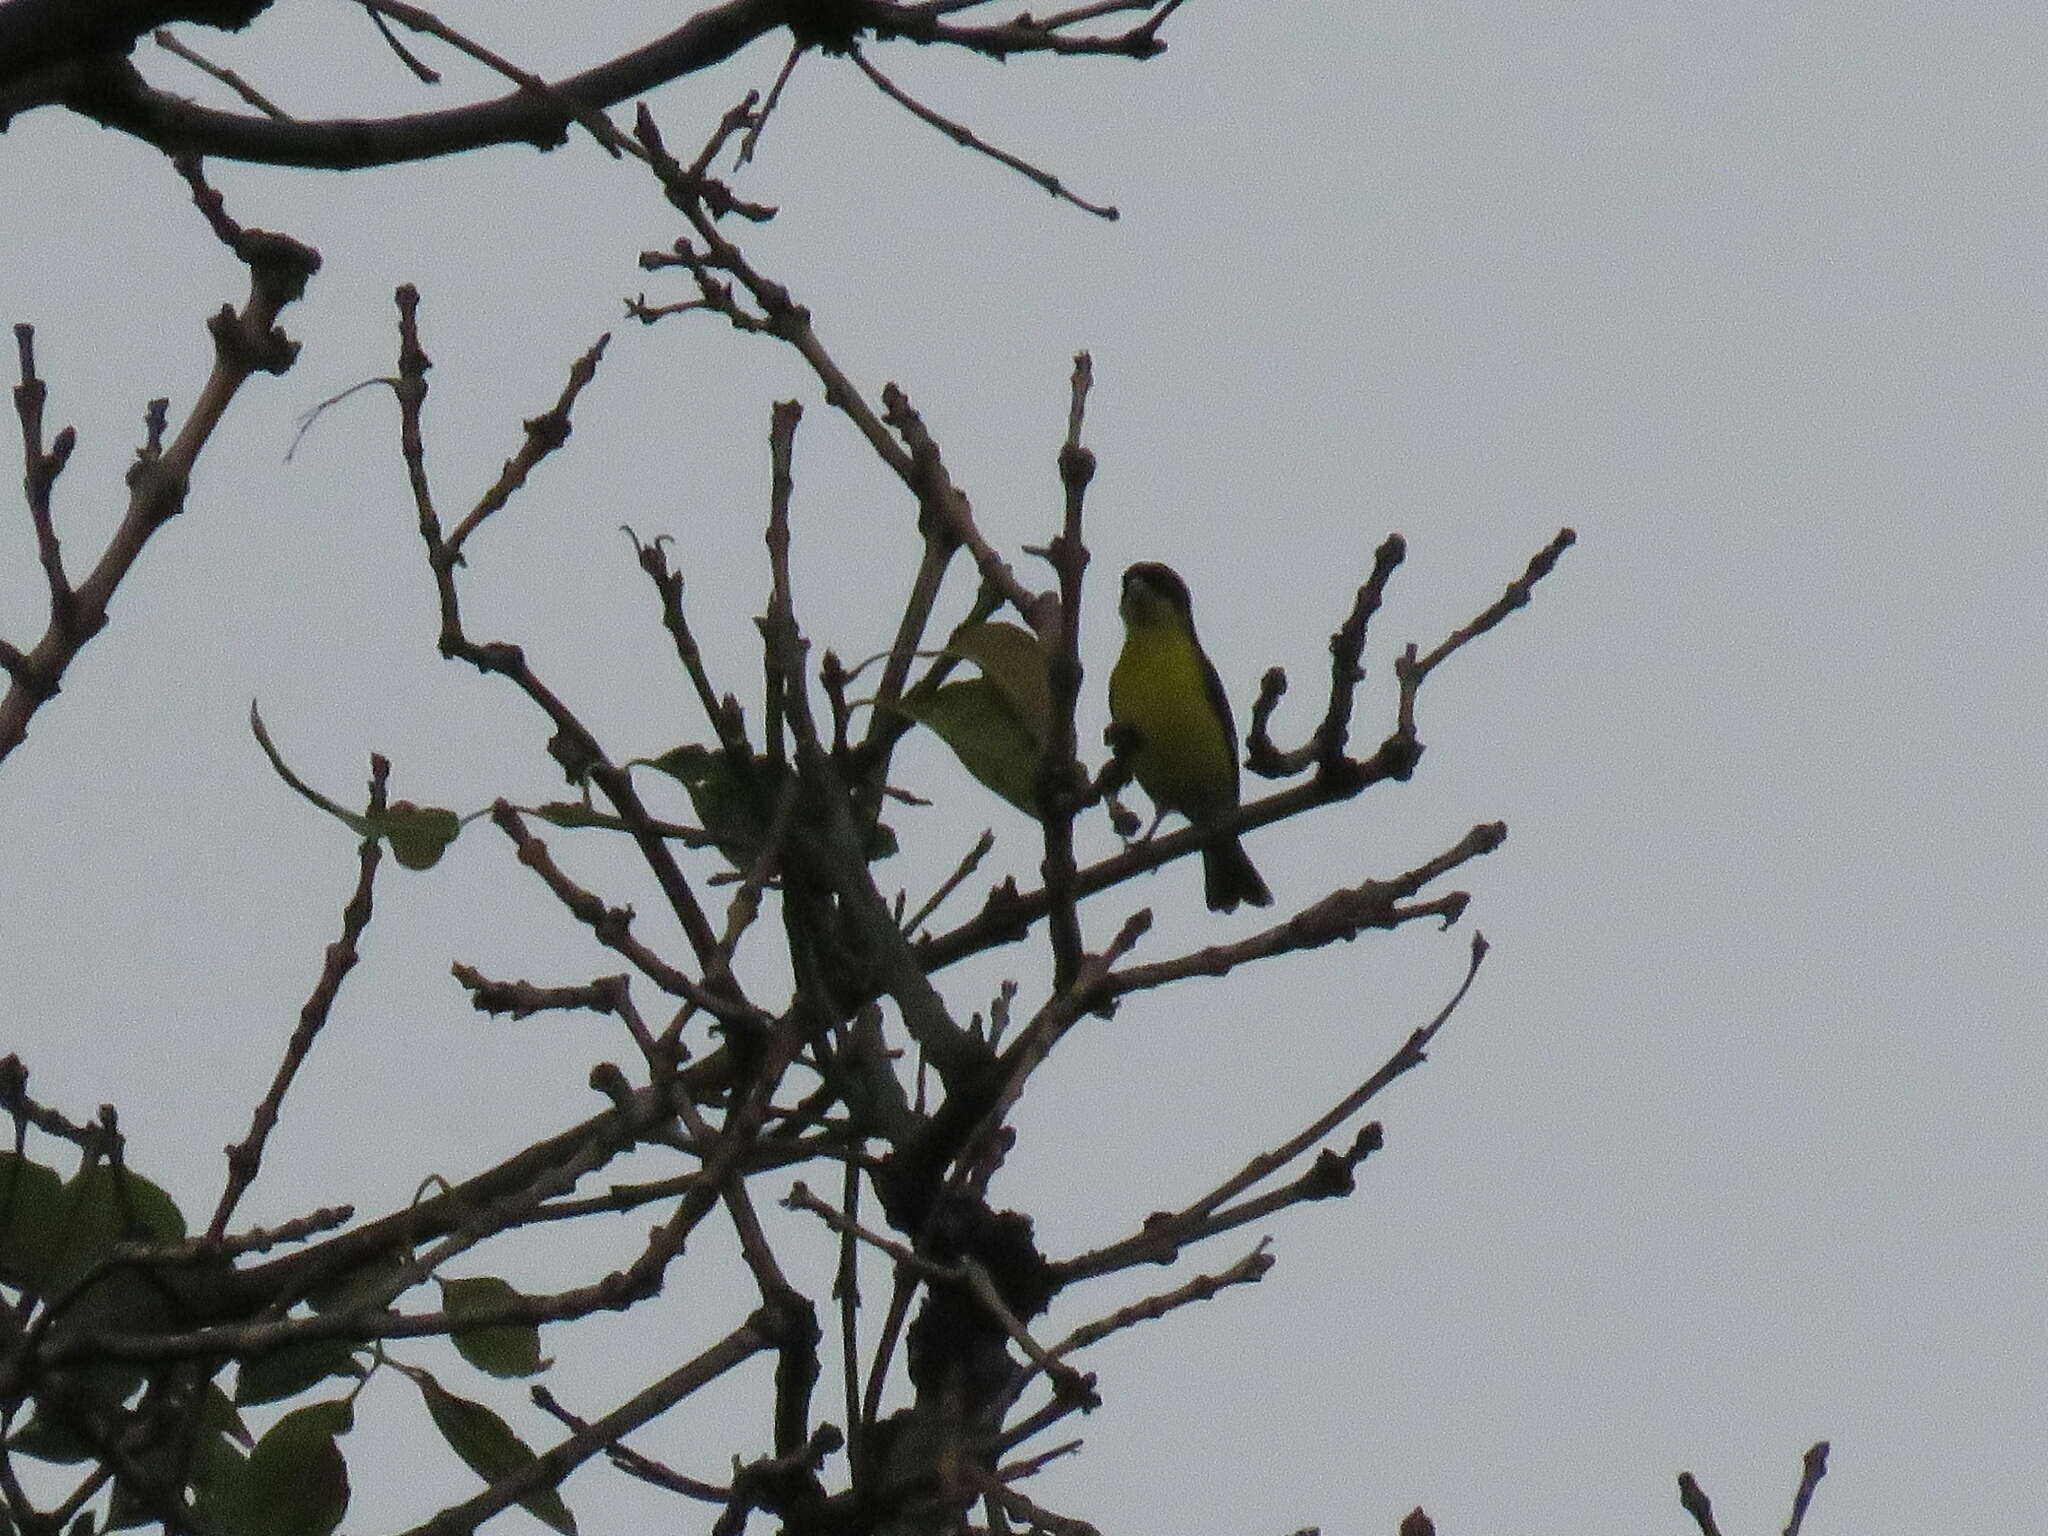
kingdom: Animalia
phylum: Chordata
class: Aves
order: Passeriformes
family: Fringillidae
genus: Spinus
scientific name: Spinus psaltria
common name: Lesser goldfinch
